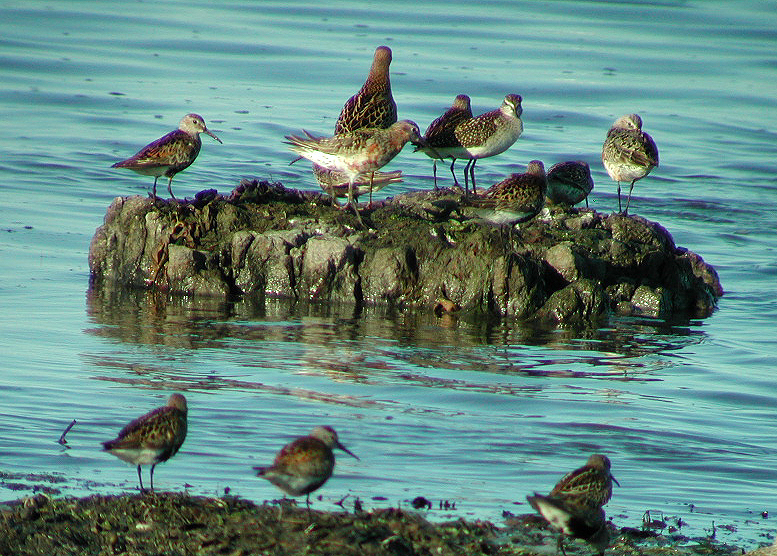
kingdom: Animalia
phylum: Chordata
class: Aves
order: Charadriiformes
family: Scolopacidae
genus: Calidris
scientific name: Calidris ferruginea
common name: Curlew sandpiper
